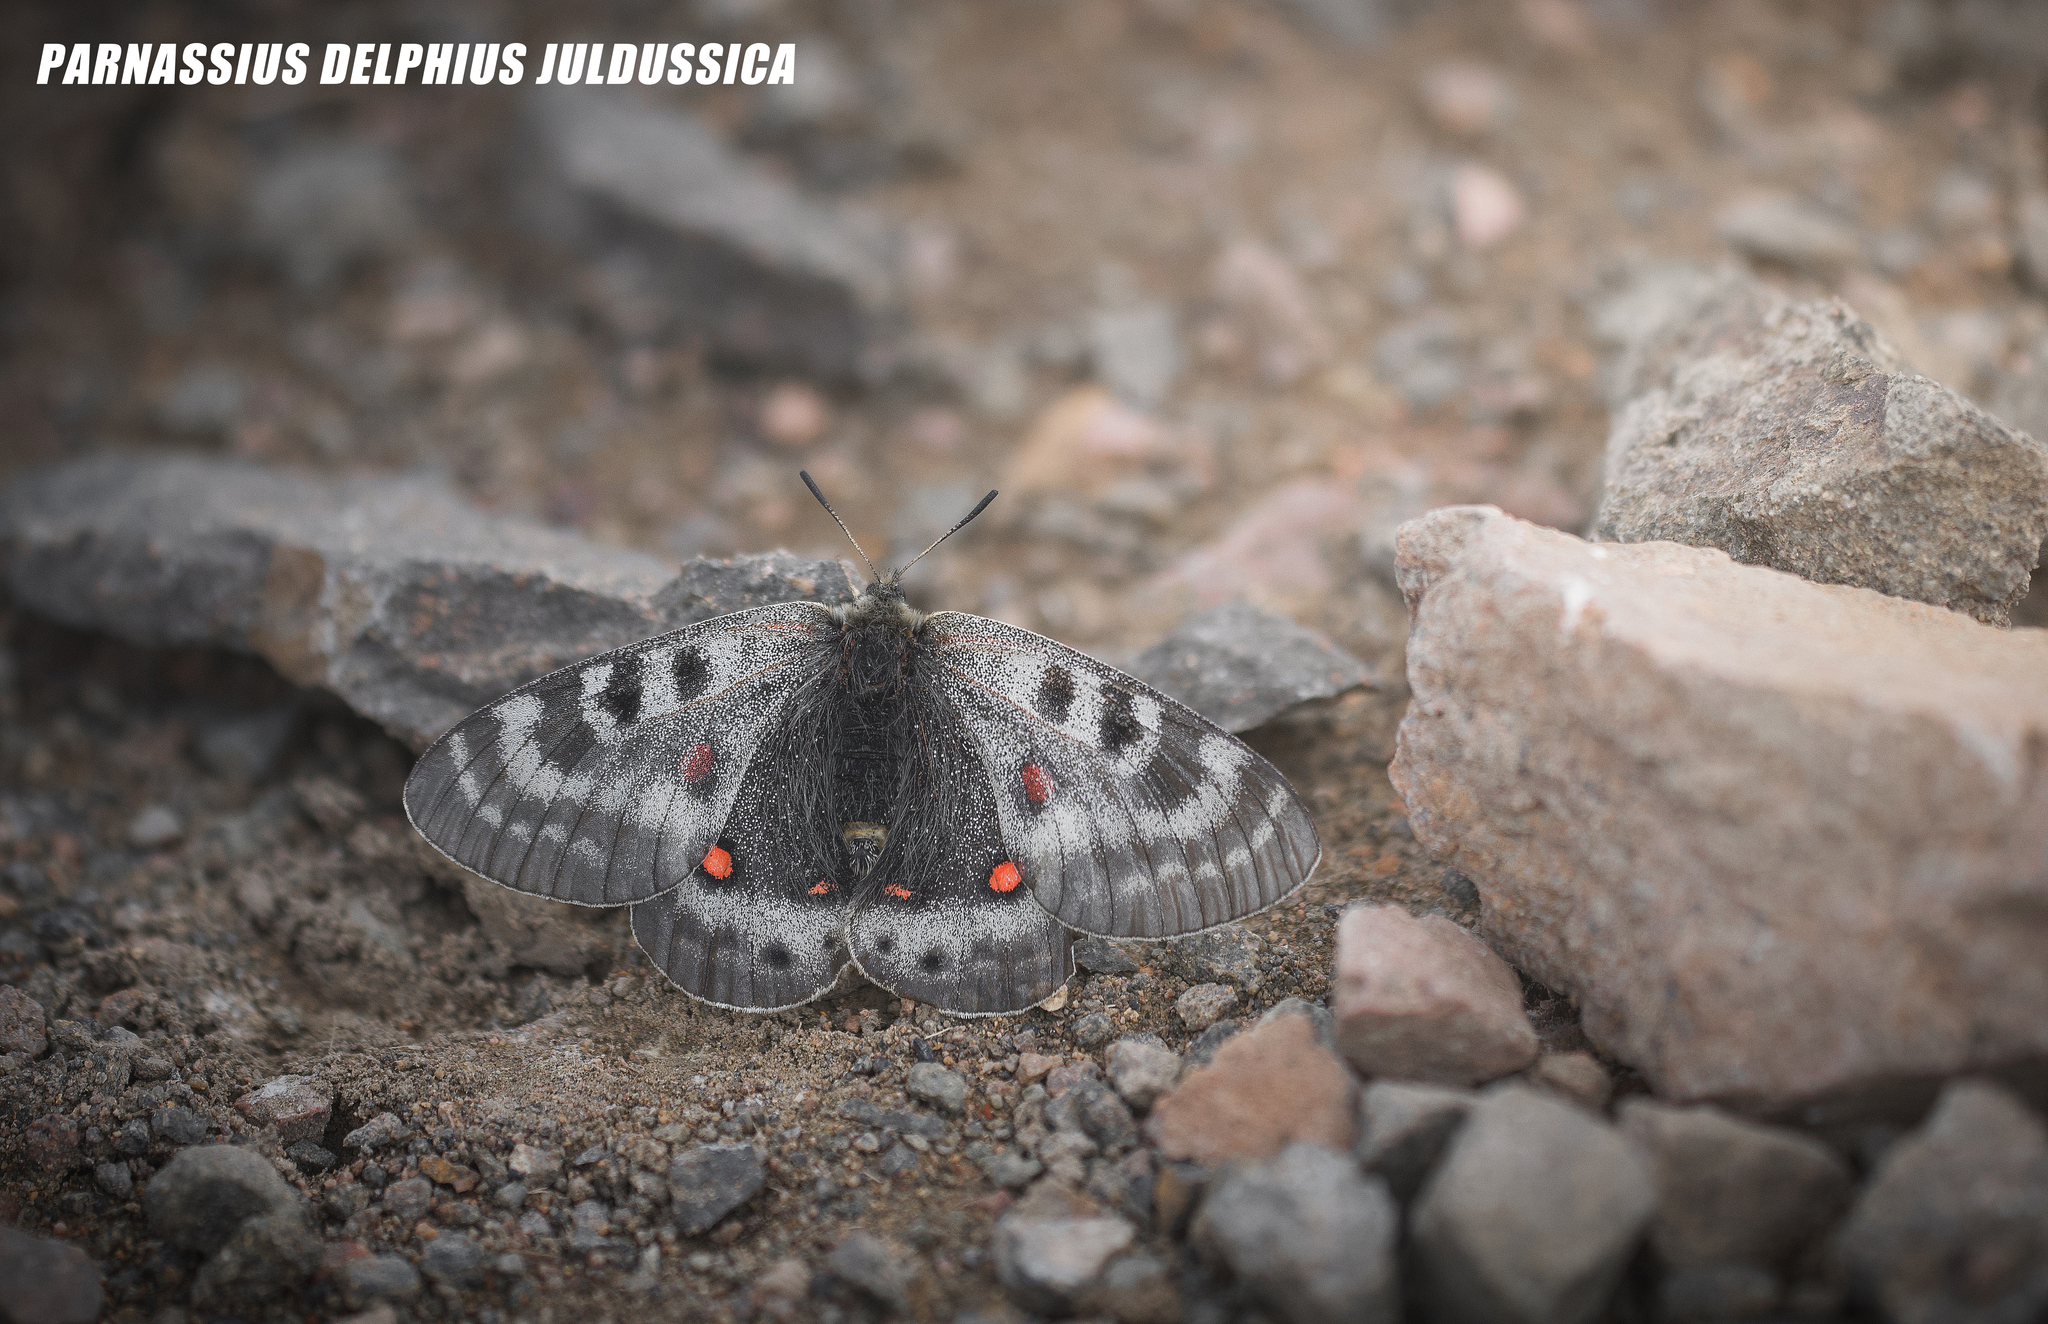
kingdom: Animalia
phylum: Arthropoda
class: Insecta
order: Lepidoptera
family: Papilionidae
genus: Parnassius
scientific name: Parnassius delphius
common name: Banded apollo
